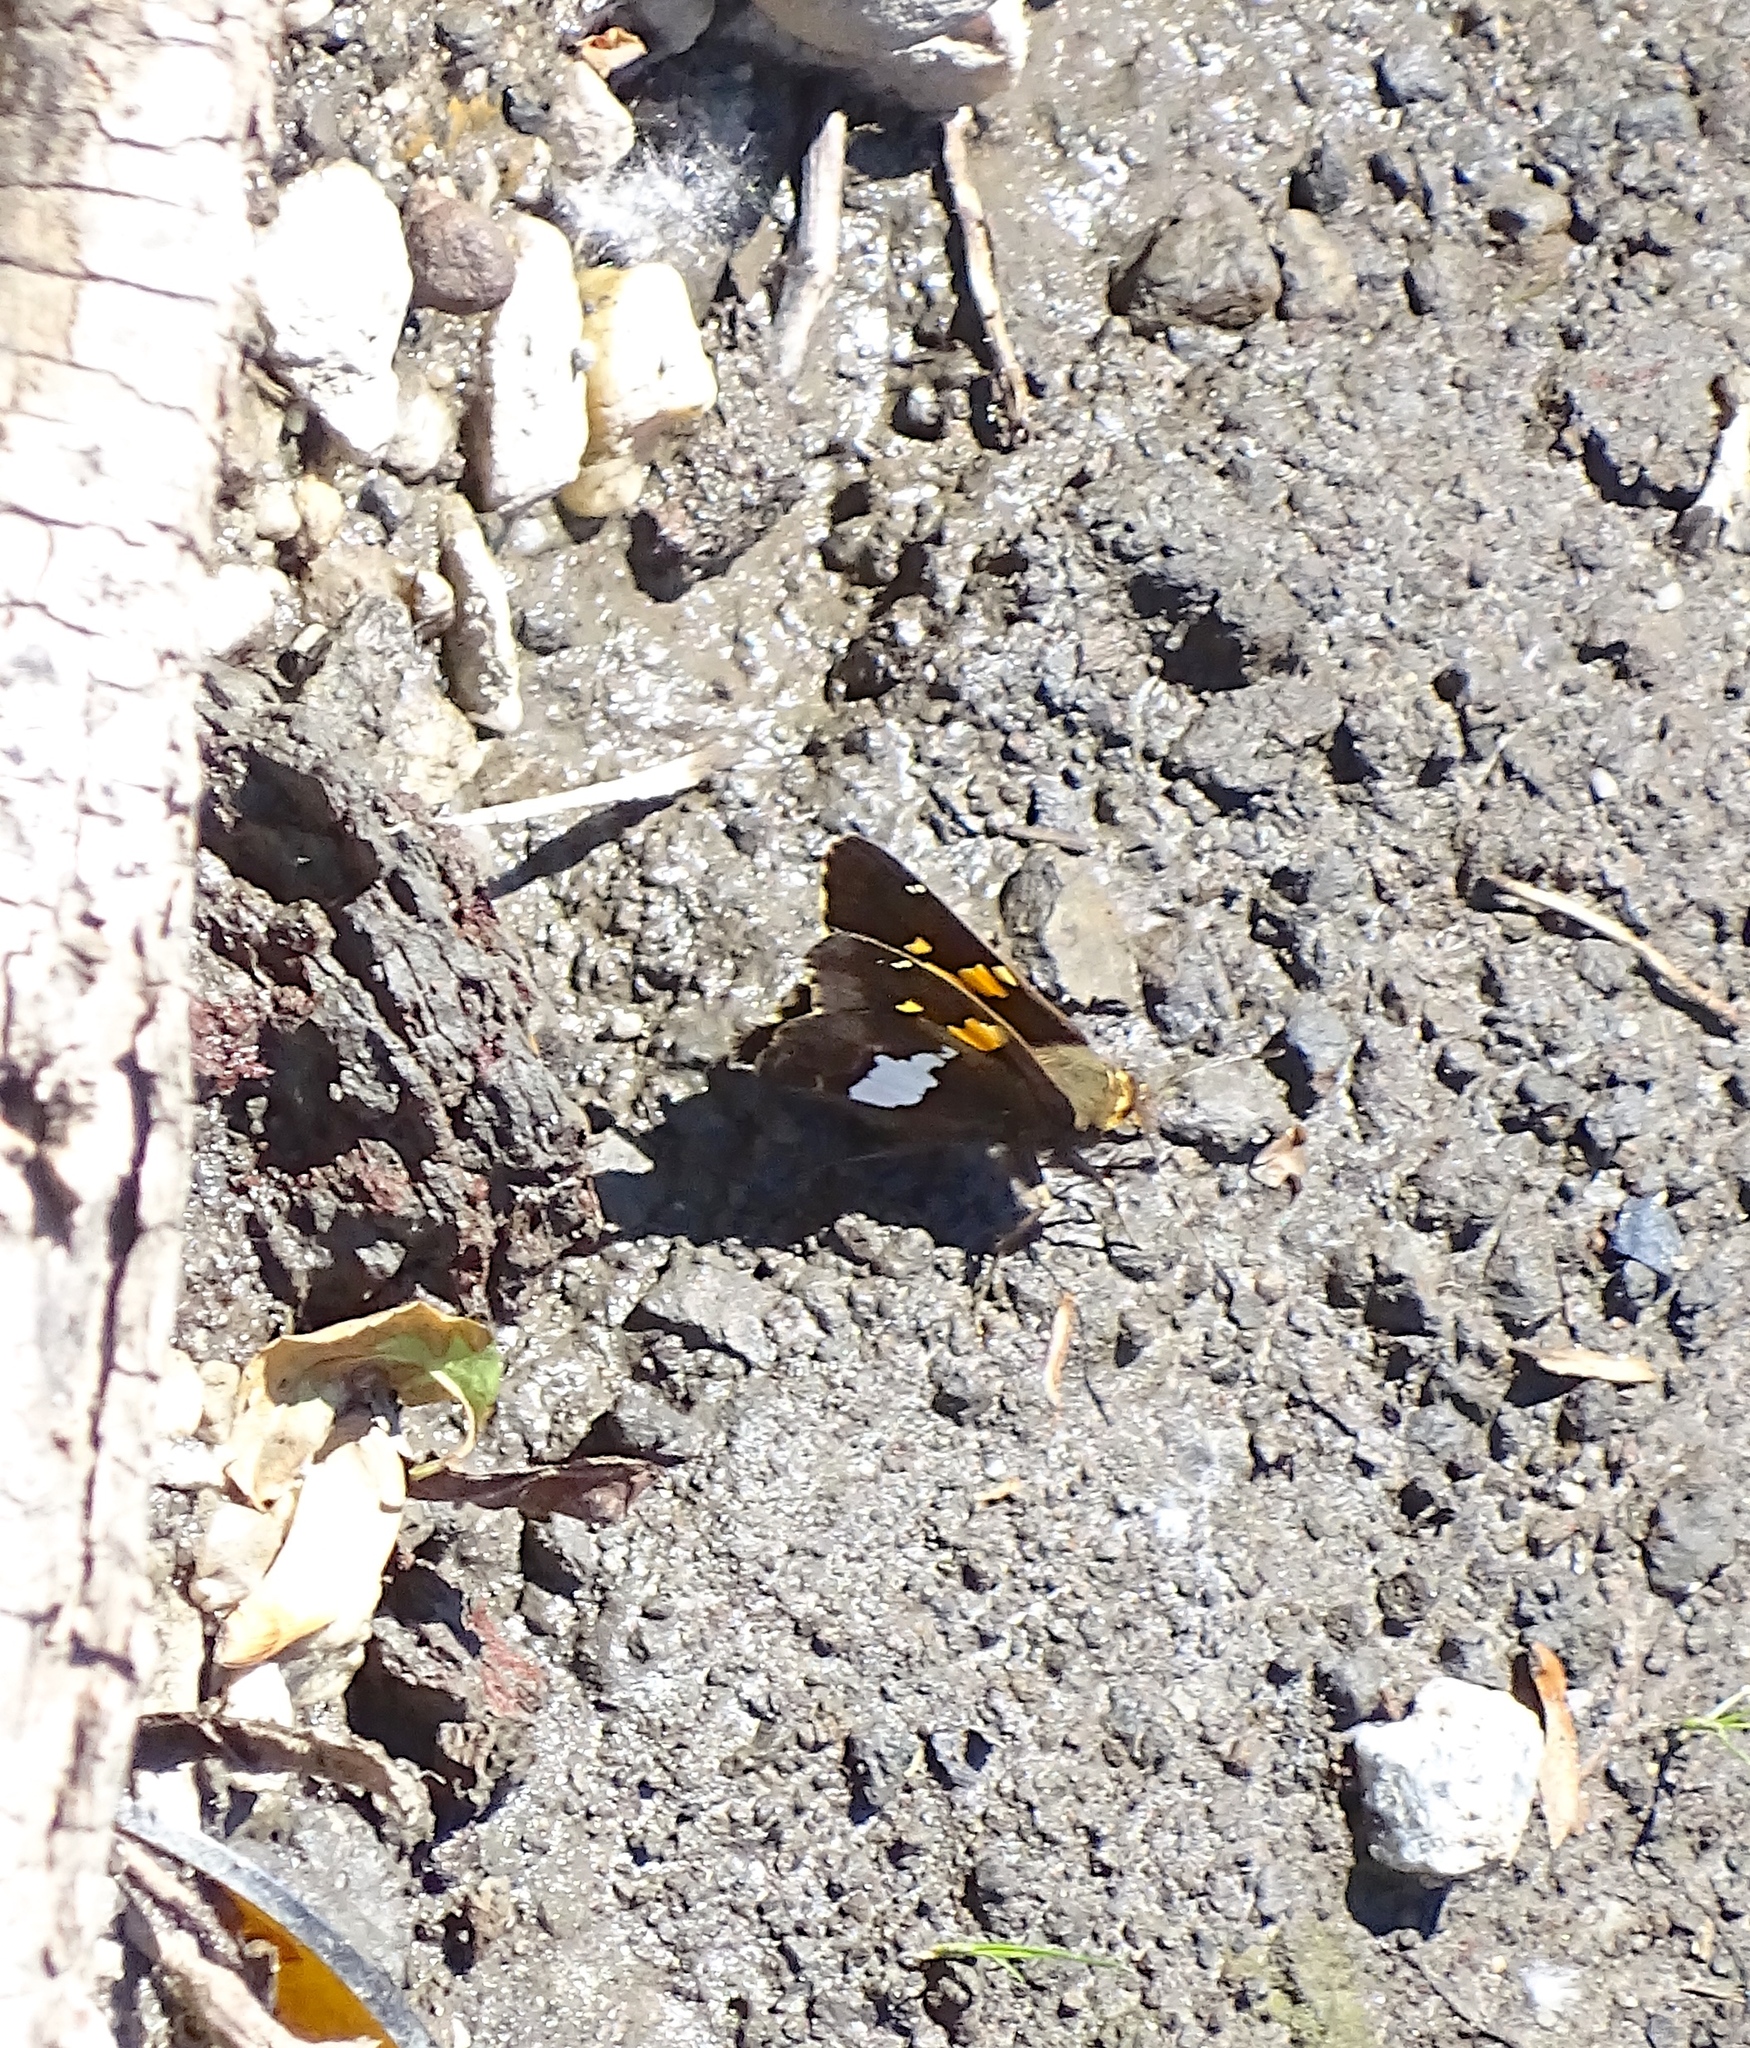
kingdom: Animalia
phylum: Arthropoda
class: Insecta
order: Lepidoptera
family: Hesperiidae
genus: Epargyreus
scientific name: Epargyreus clarus
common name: Silver-spotted skipper
